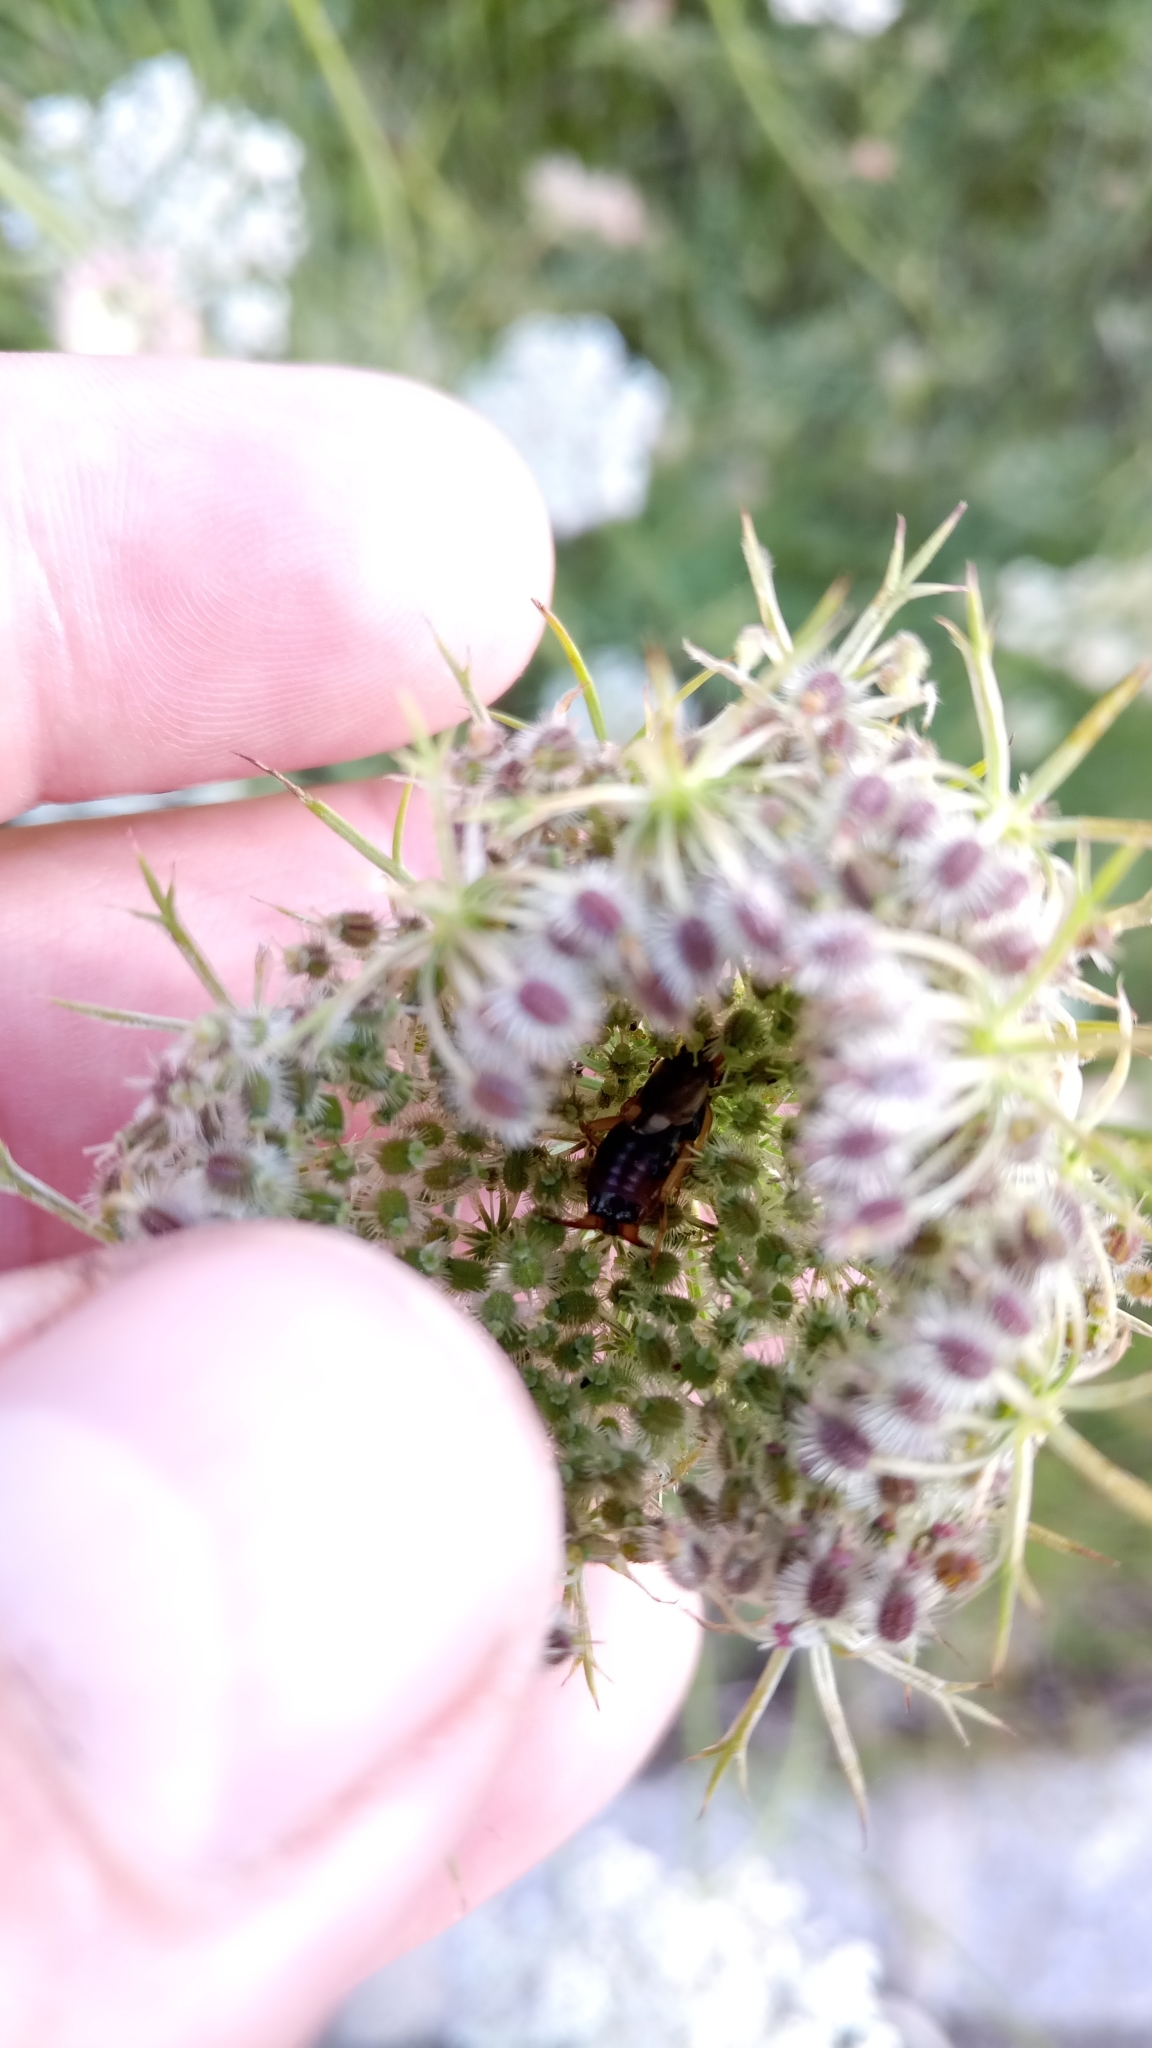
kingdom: Animalia
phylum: Arthropoda
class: Insecta
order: Dermaptera
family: Forficulidae
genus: Forficula
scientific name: Forficula
